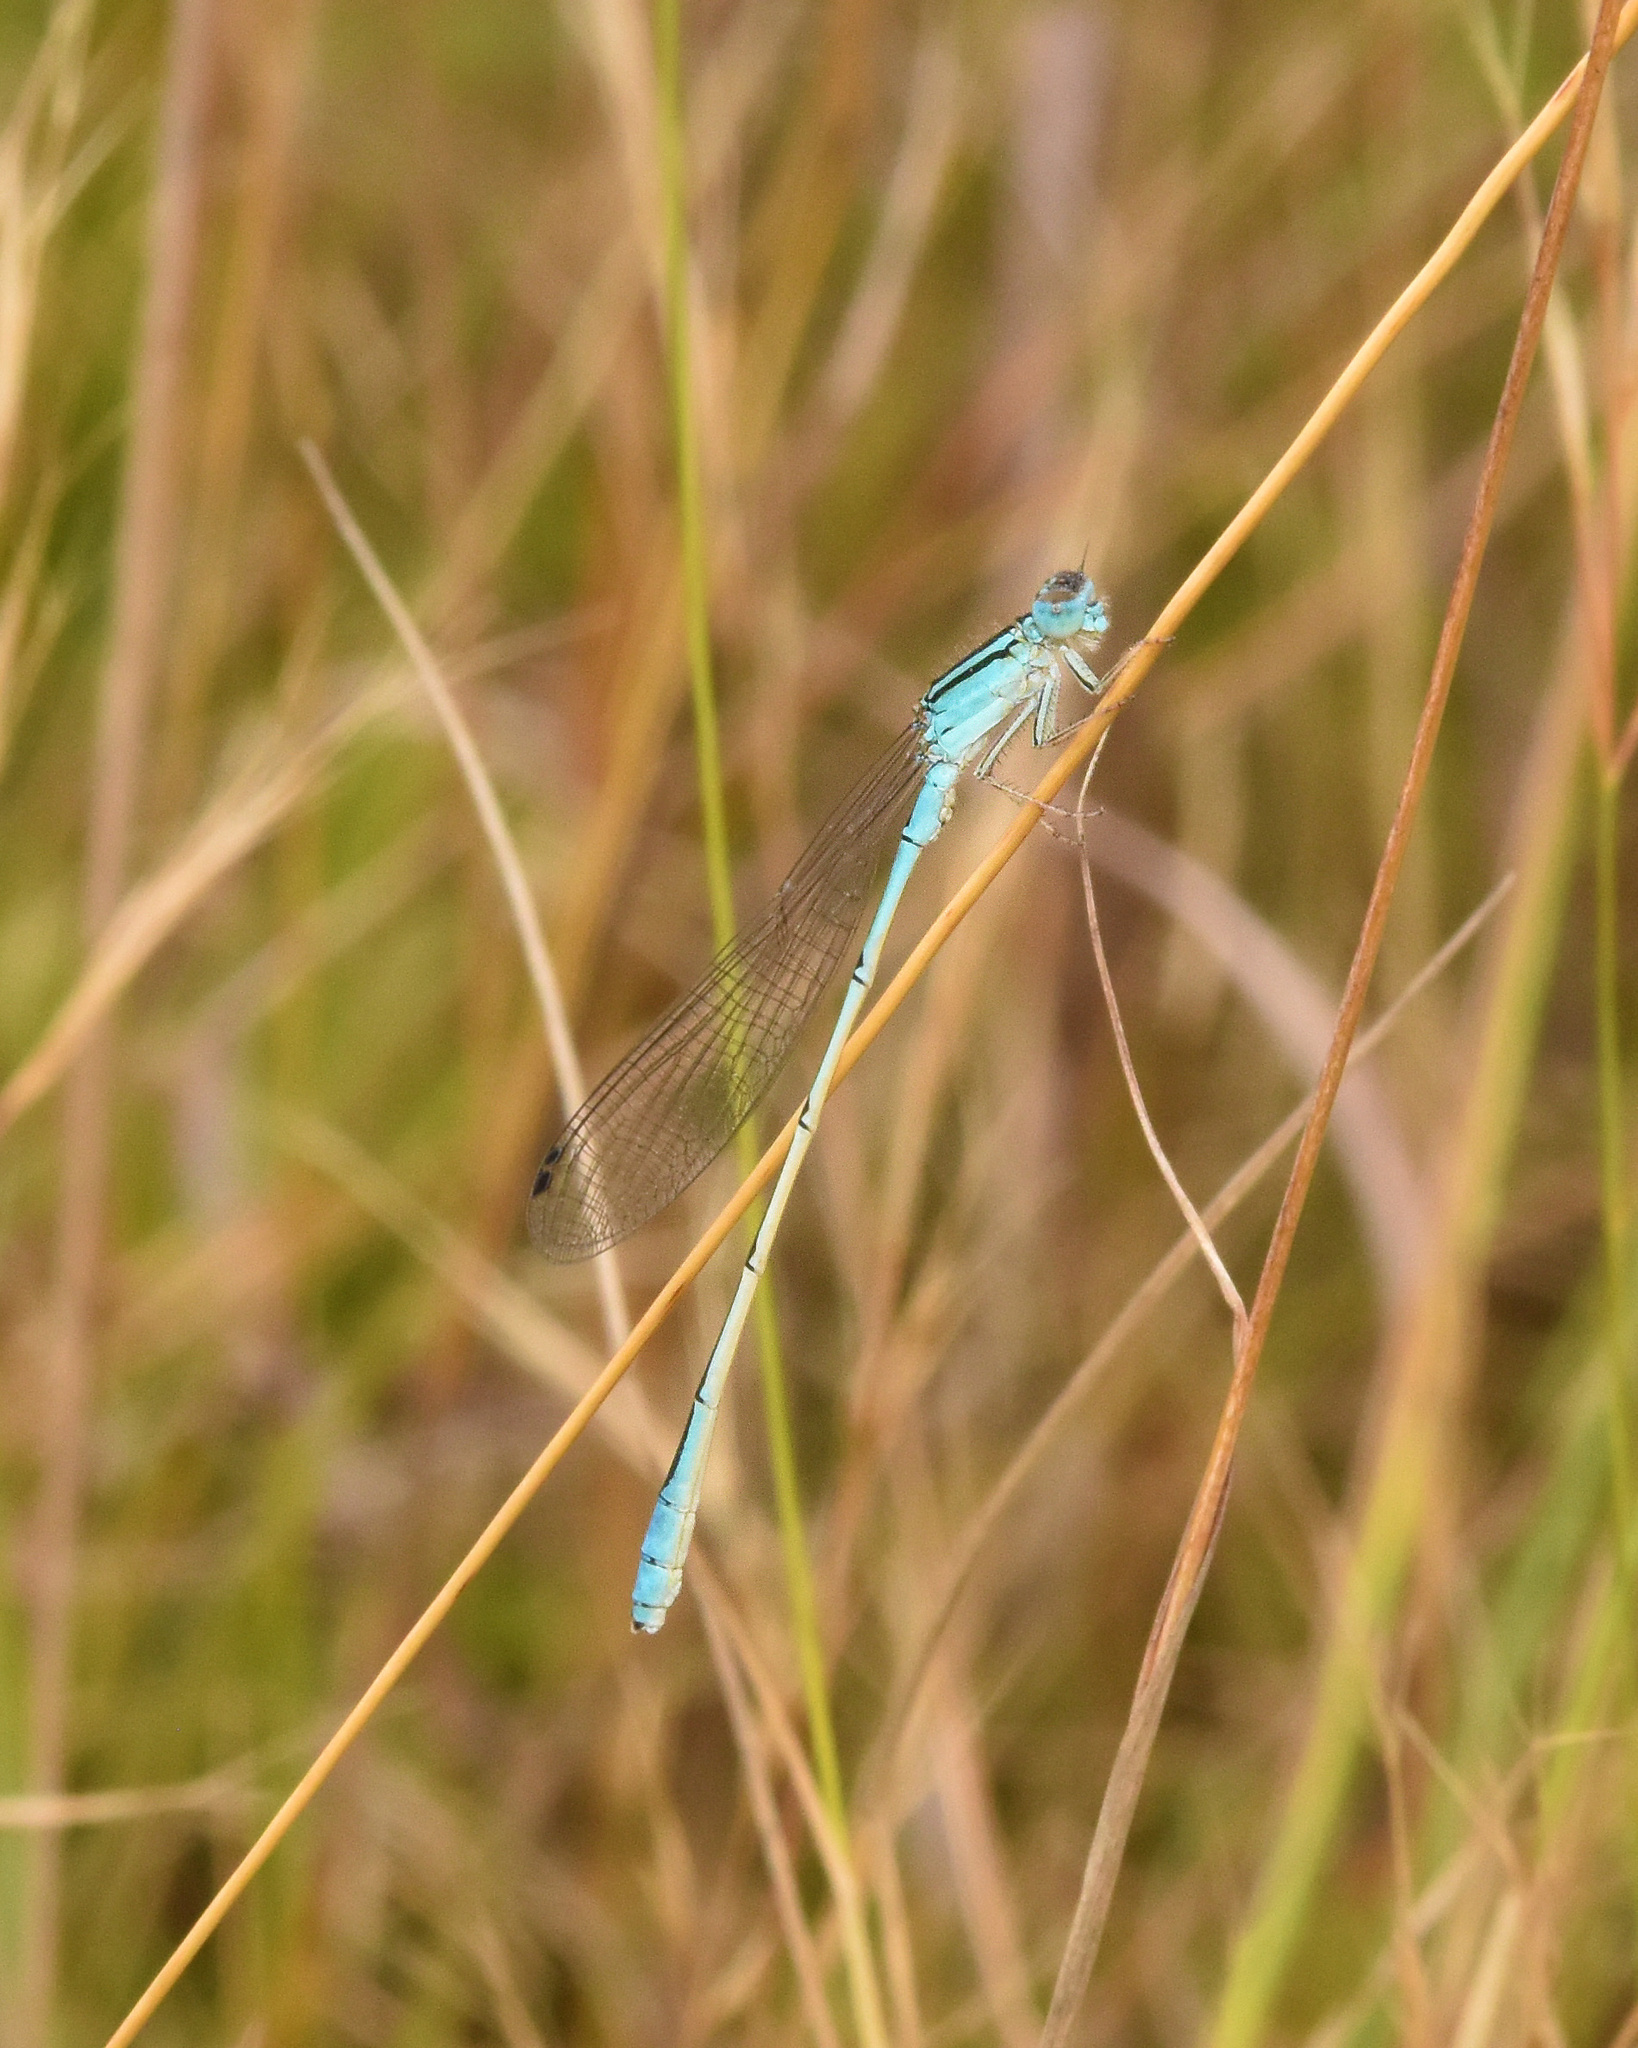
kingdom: Animalia
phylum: Arthropoda
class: Insecta
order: Odonata
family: Coenagrionidae
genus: Africallagma
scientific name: Africallagma glaucum
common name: Swamp bluet
